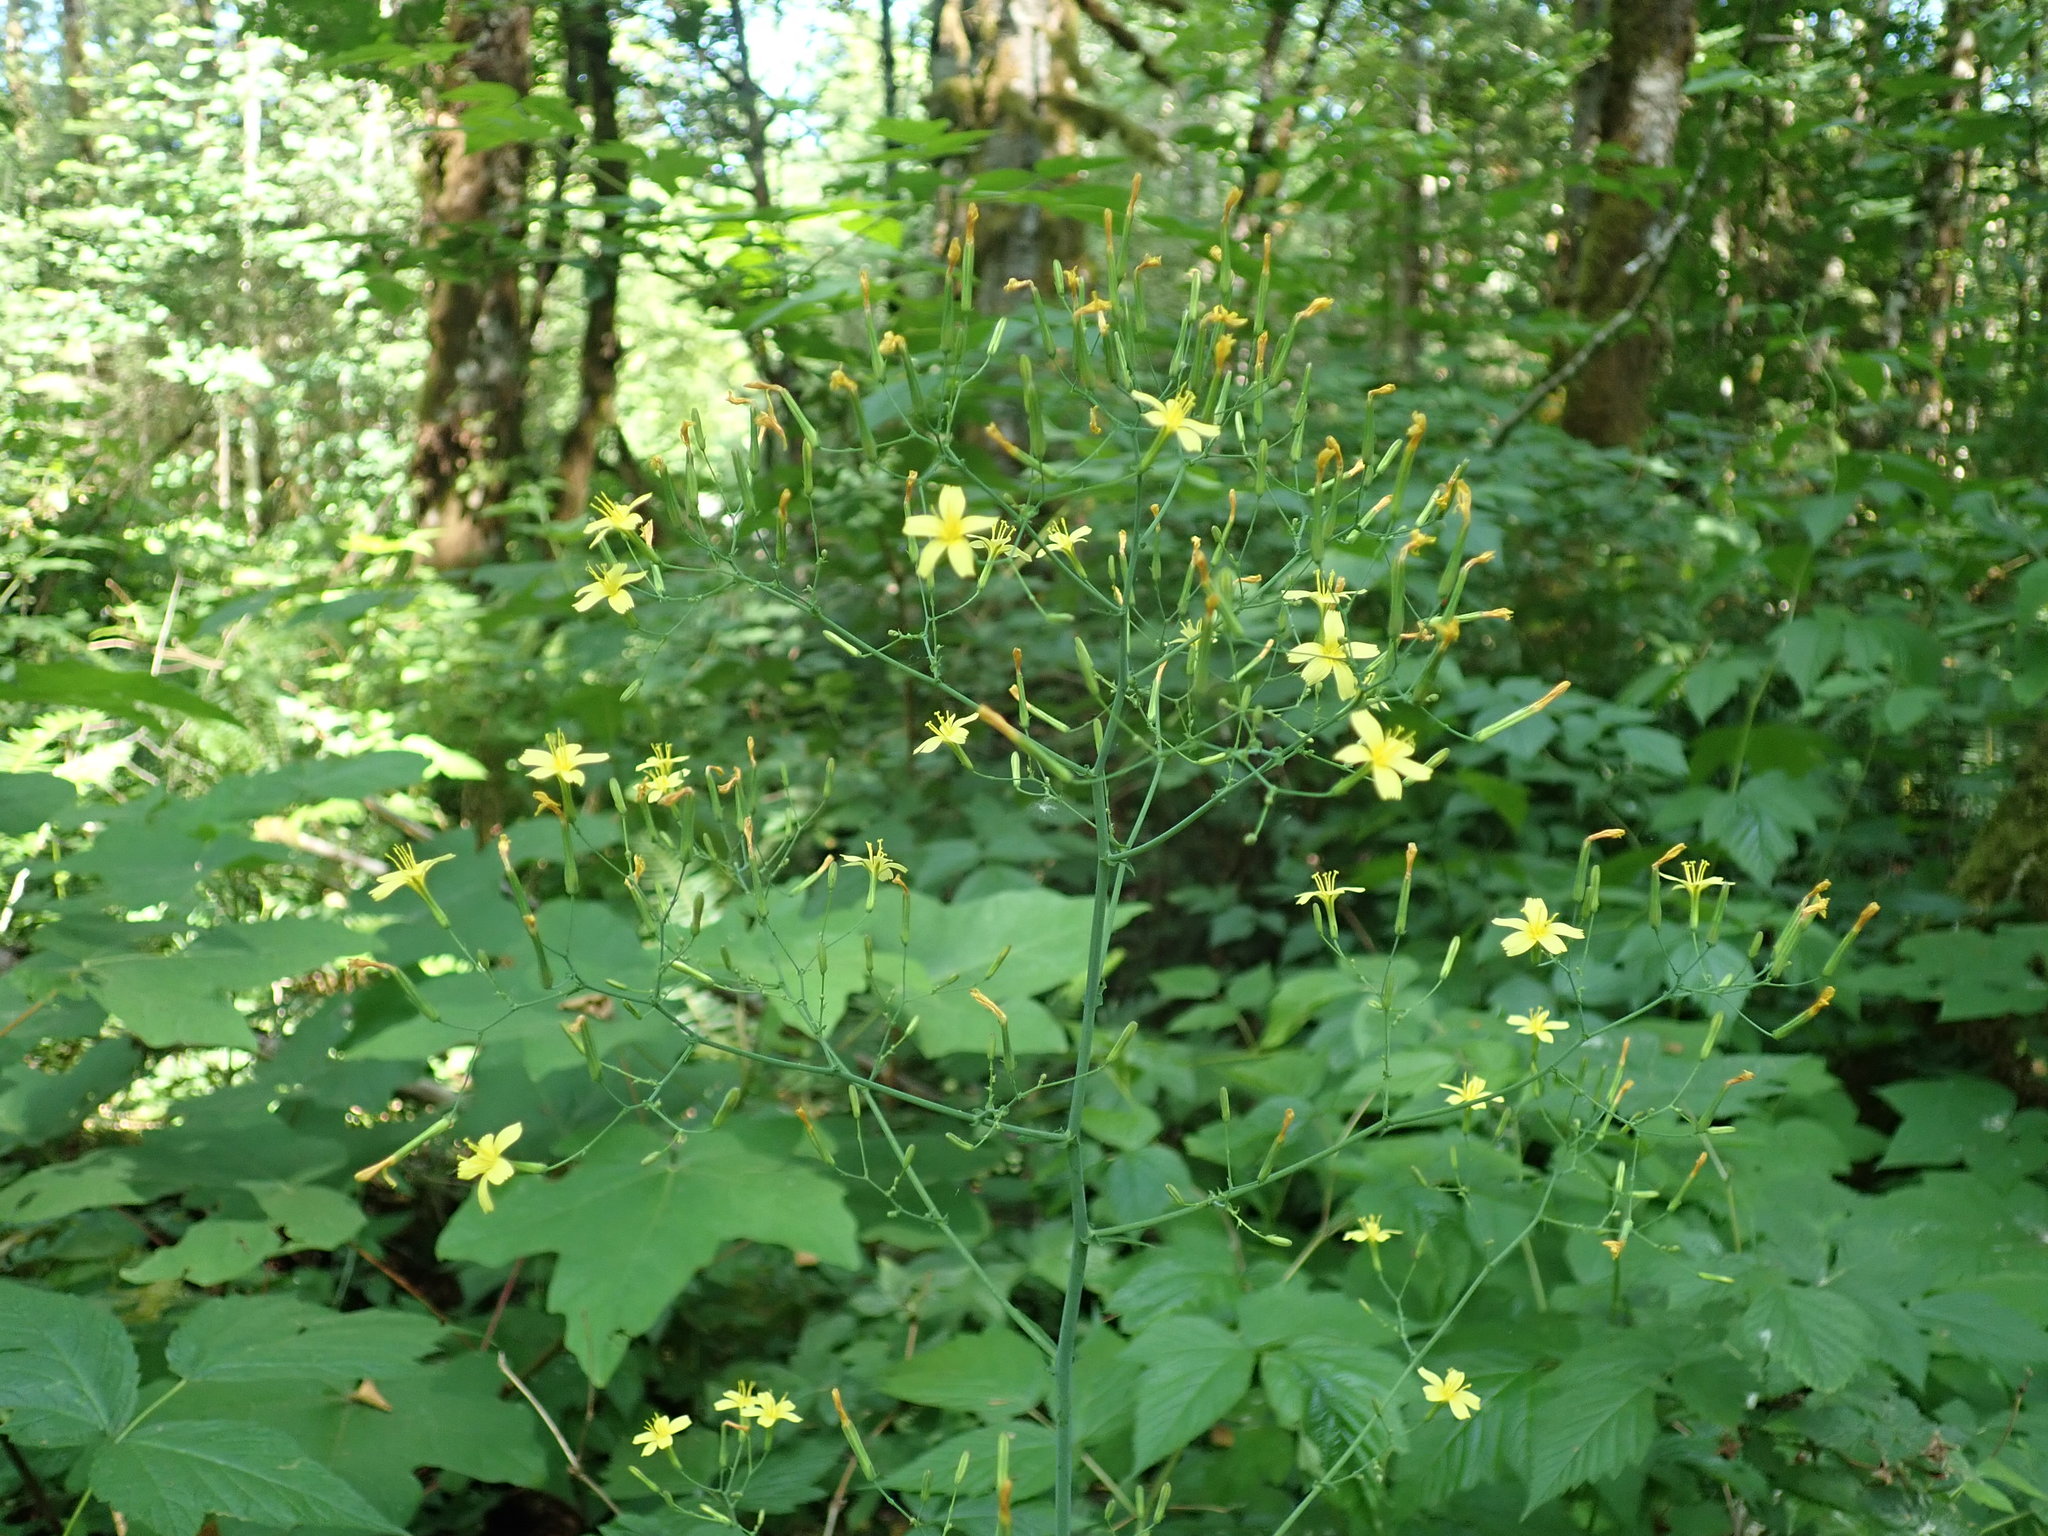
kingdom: Plantae
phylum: Tracheophyta
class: Magnoliopsida
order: Asterales
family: Asteraceae
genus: Mycelis
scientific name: Mycelis muralis
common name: Wall lettuce
